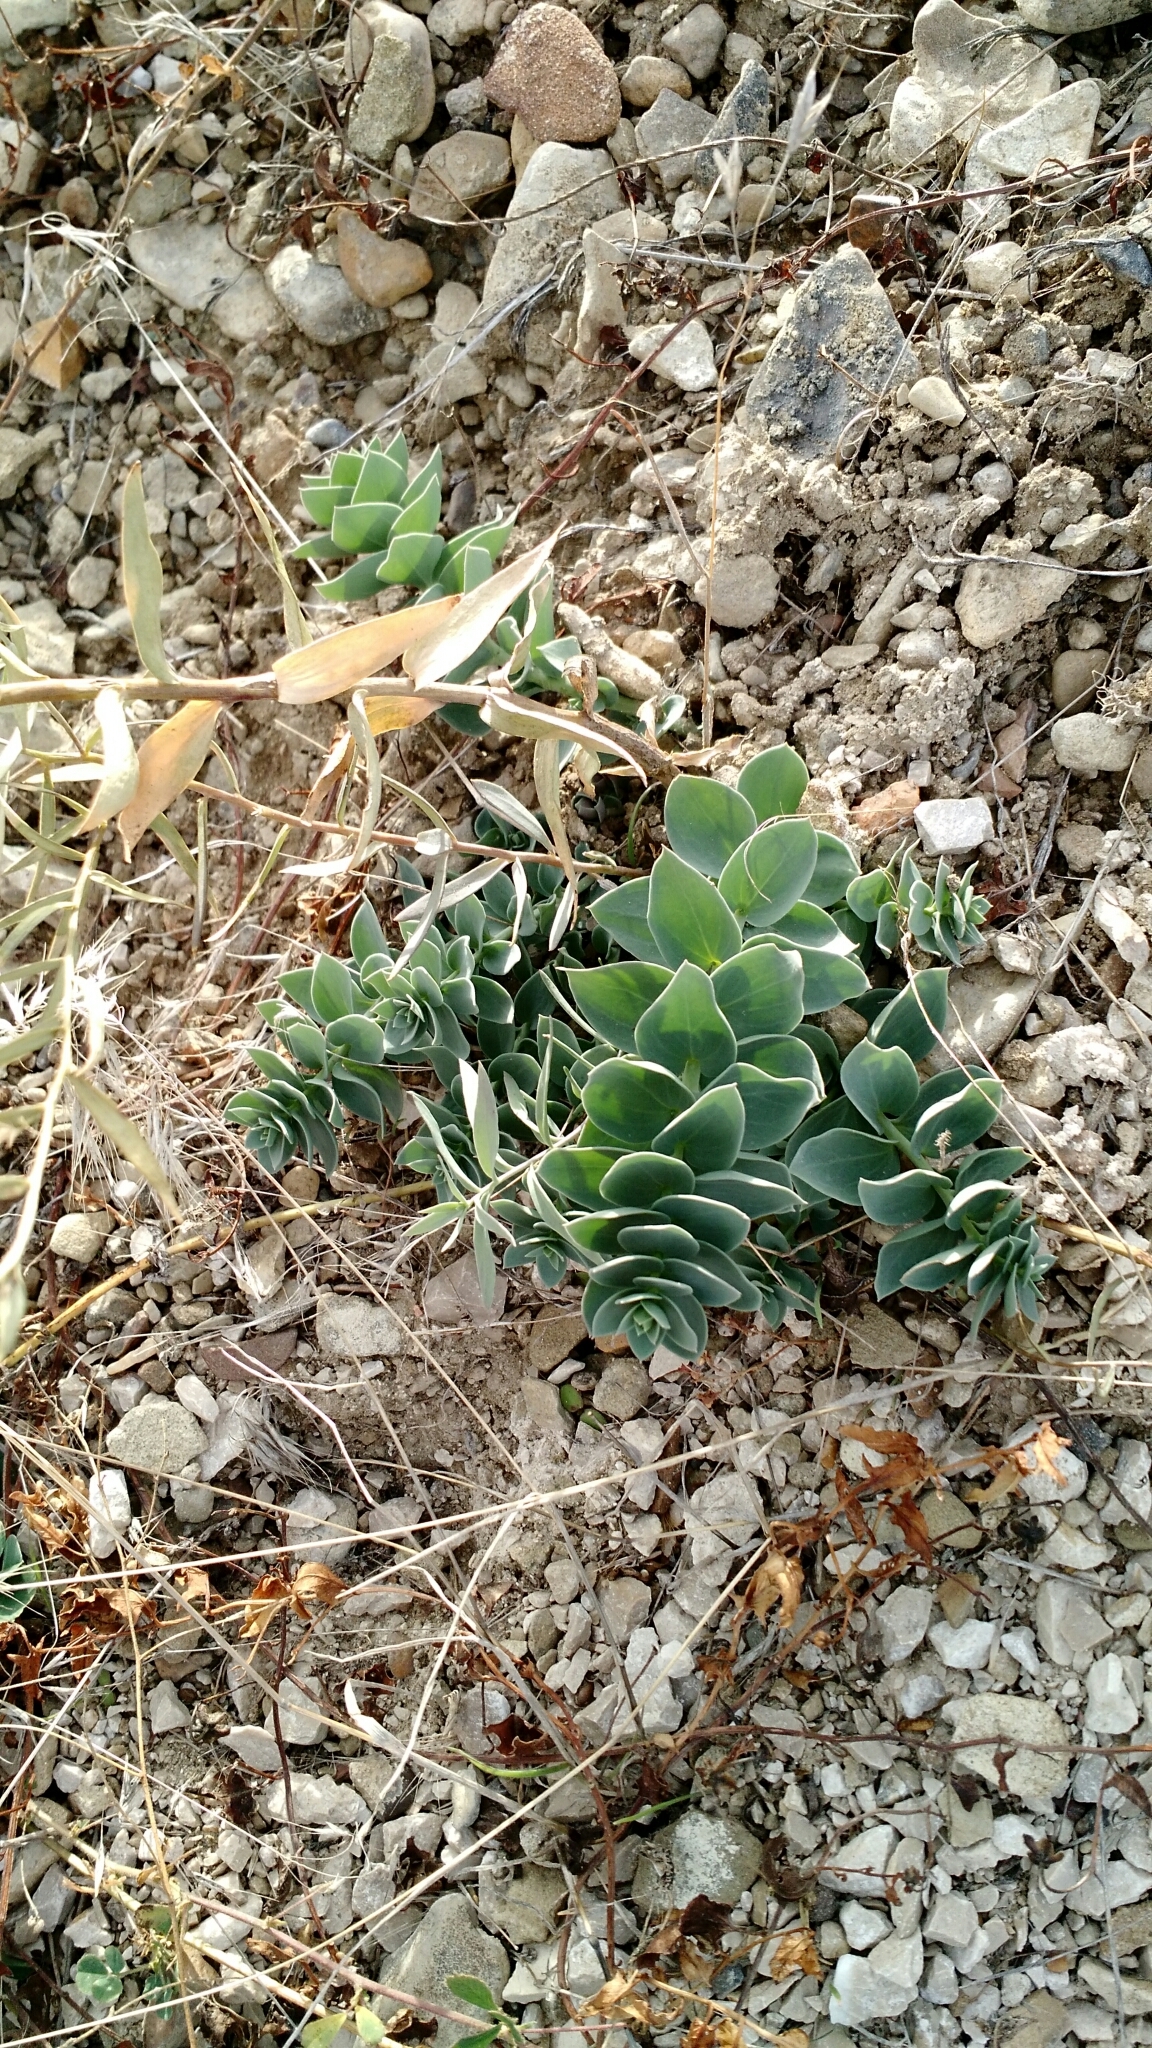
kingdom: Plantae
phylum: Tracheophyta
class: Magnoliopsida
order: Lamiales
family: Plantaginaceae
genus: Linaria
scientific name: Linaria dalmatica
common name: Dalmatian toadflax
